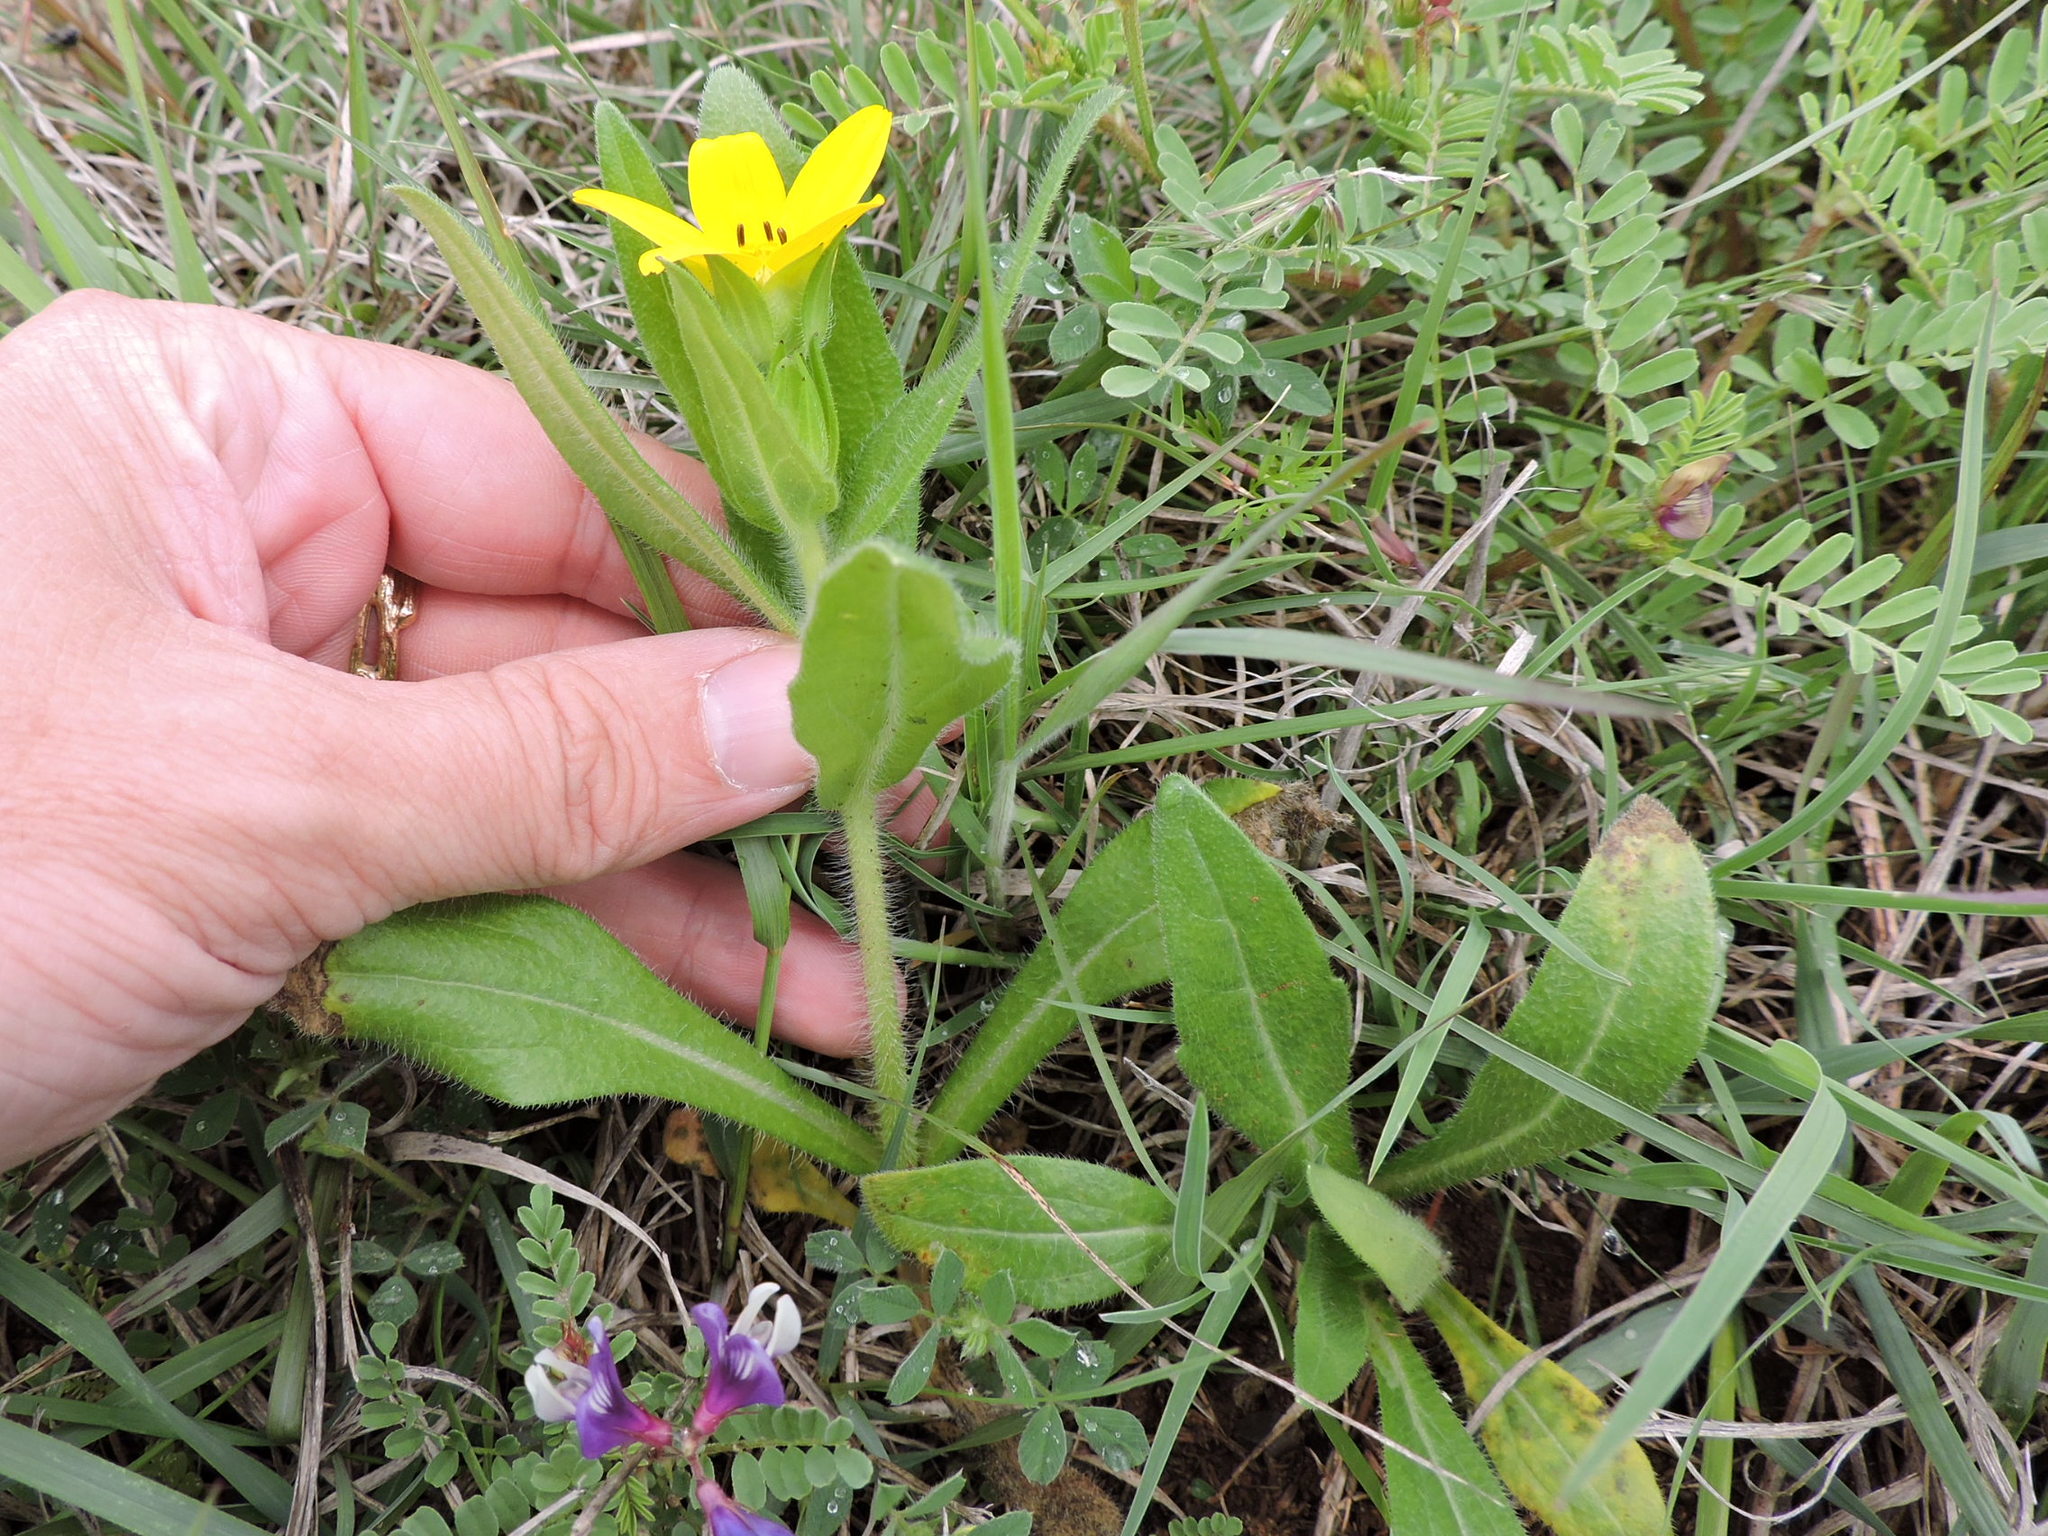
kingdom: Plantae
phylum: Tracheophyta
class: Magnoliopsida
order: Asterales
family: Asteraceae
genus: Lindheimera
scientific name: Lindheimera texana
